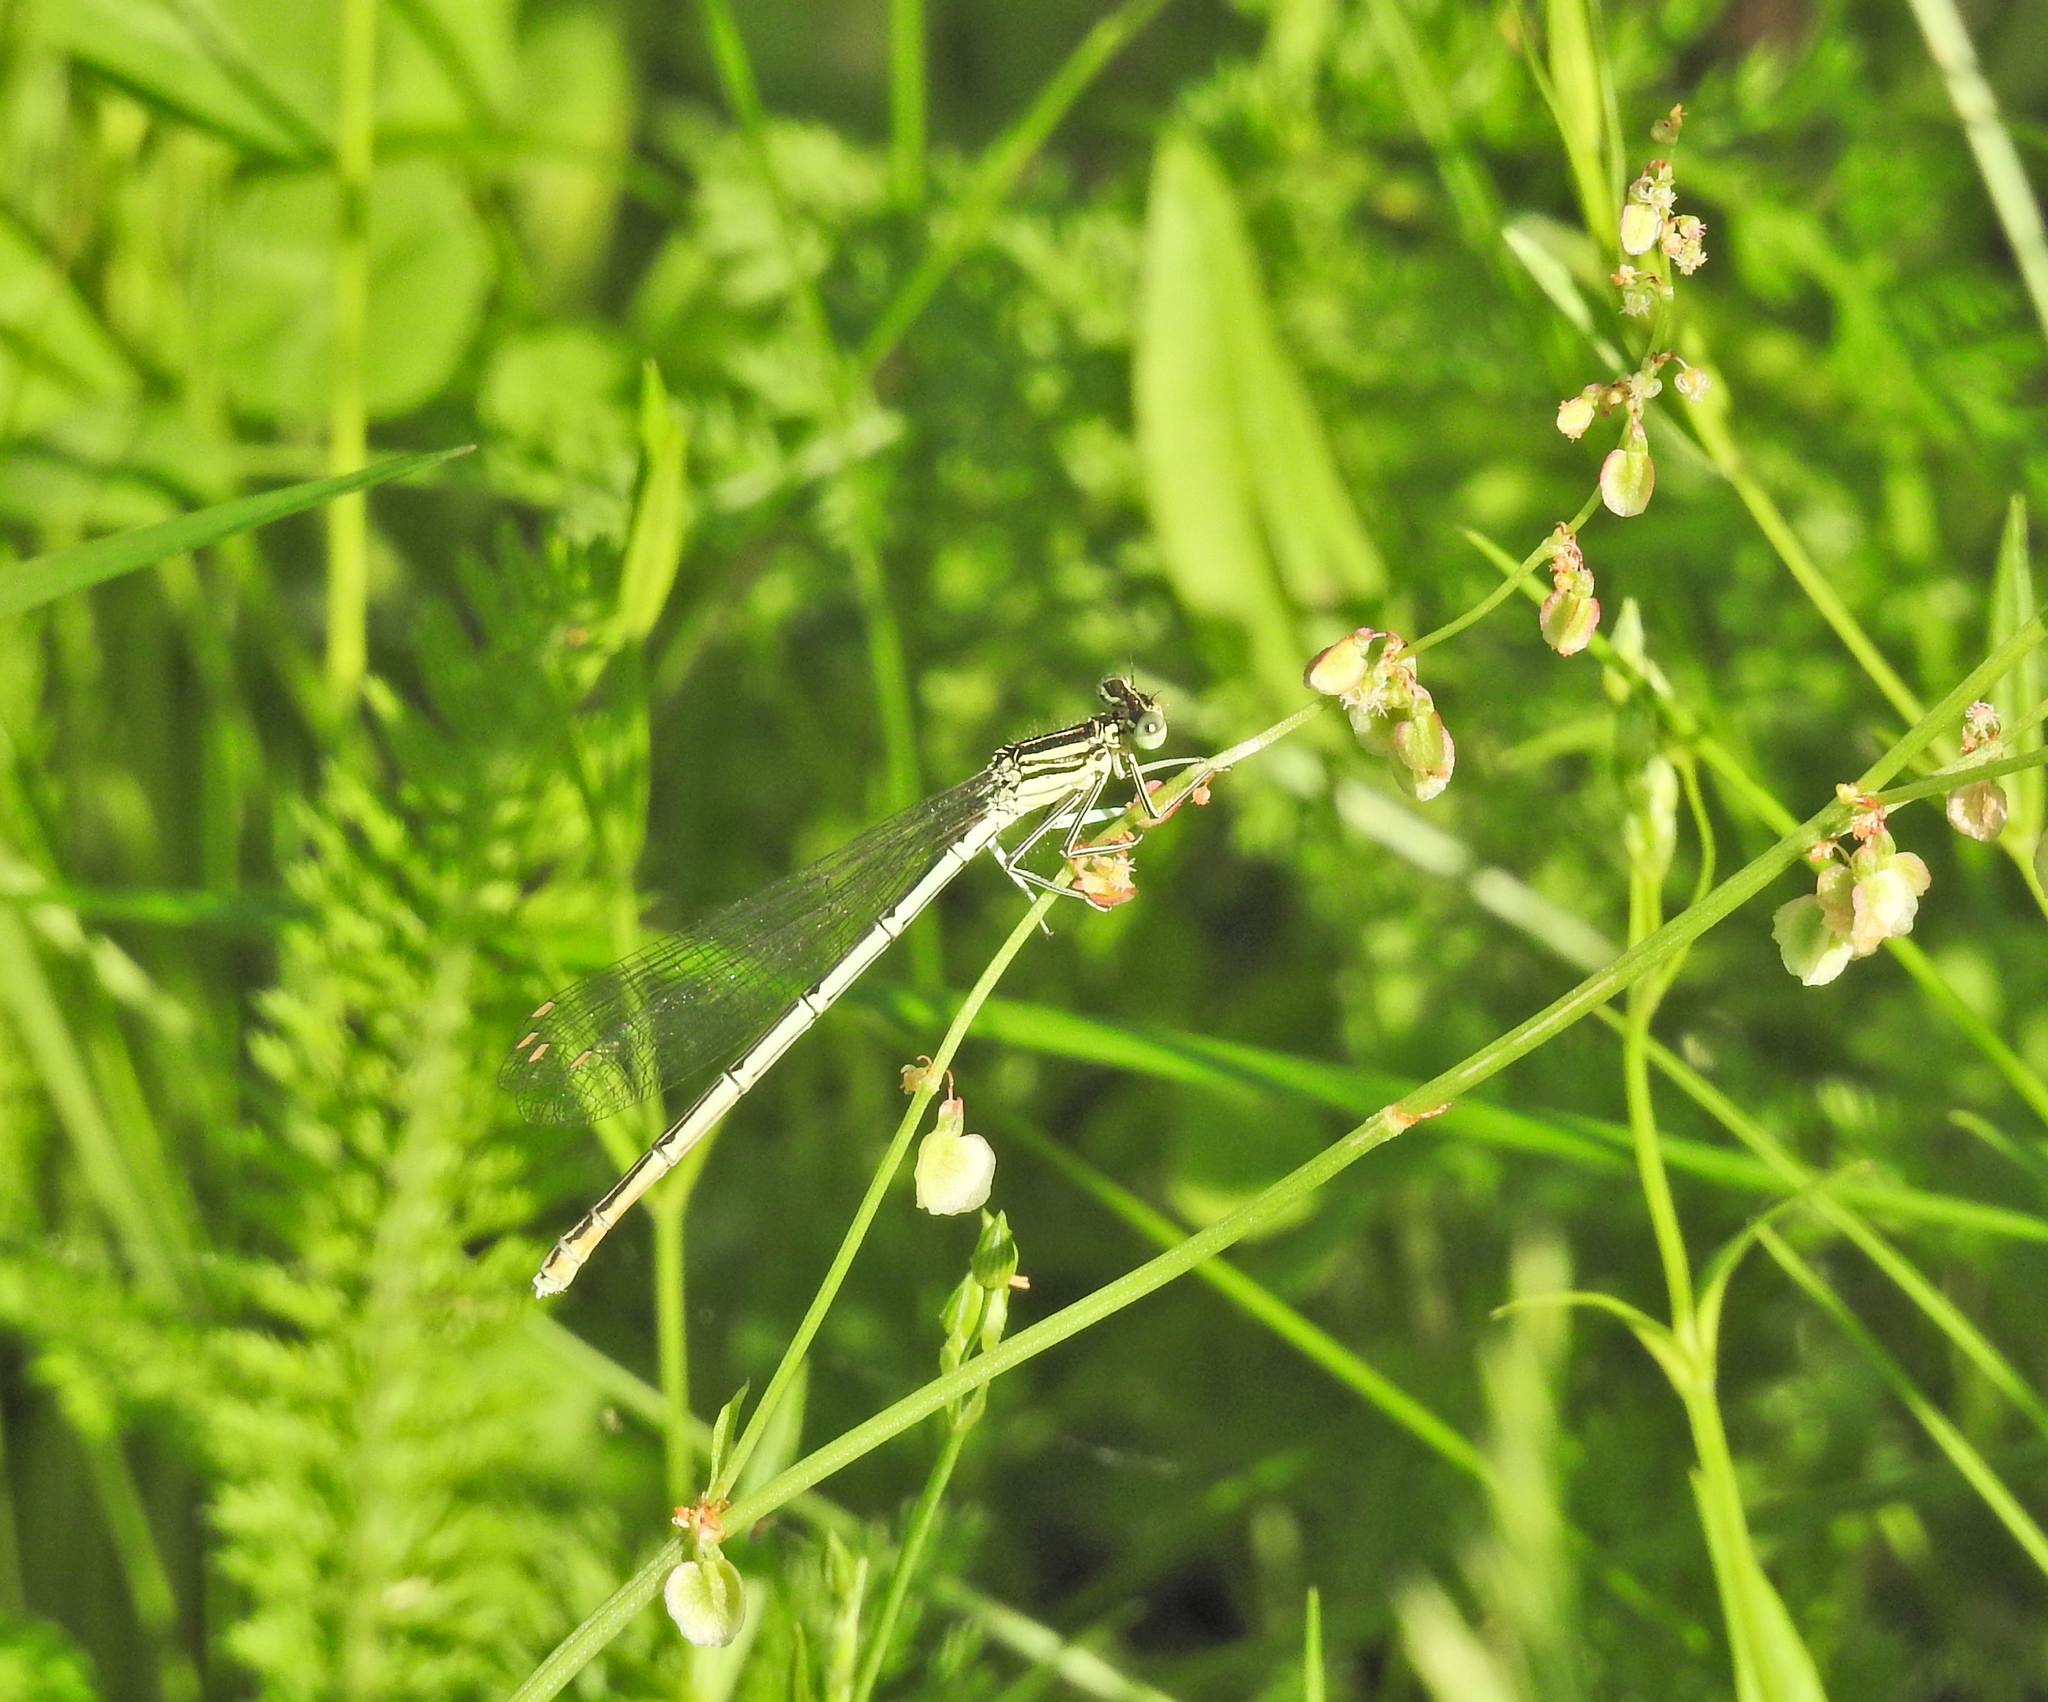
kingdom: Animalia
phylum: Arthropoda
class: Insecta
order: Odonata
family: Platycnemididae
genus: Platycnemis
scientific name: Platycnemis pennipes
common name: White-legged damselfly
